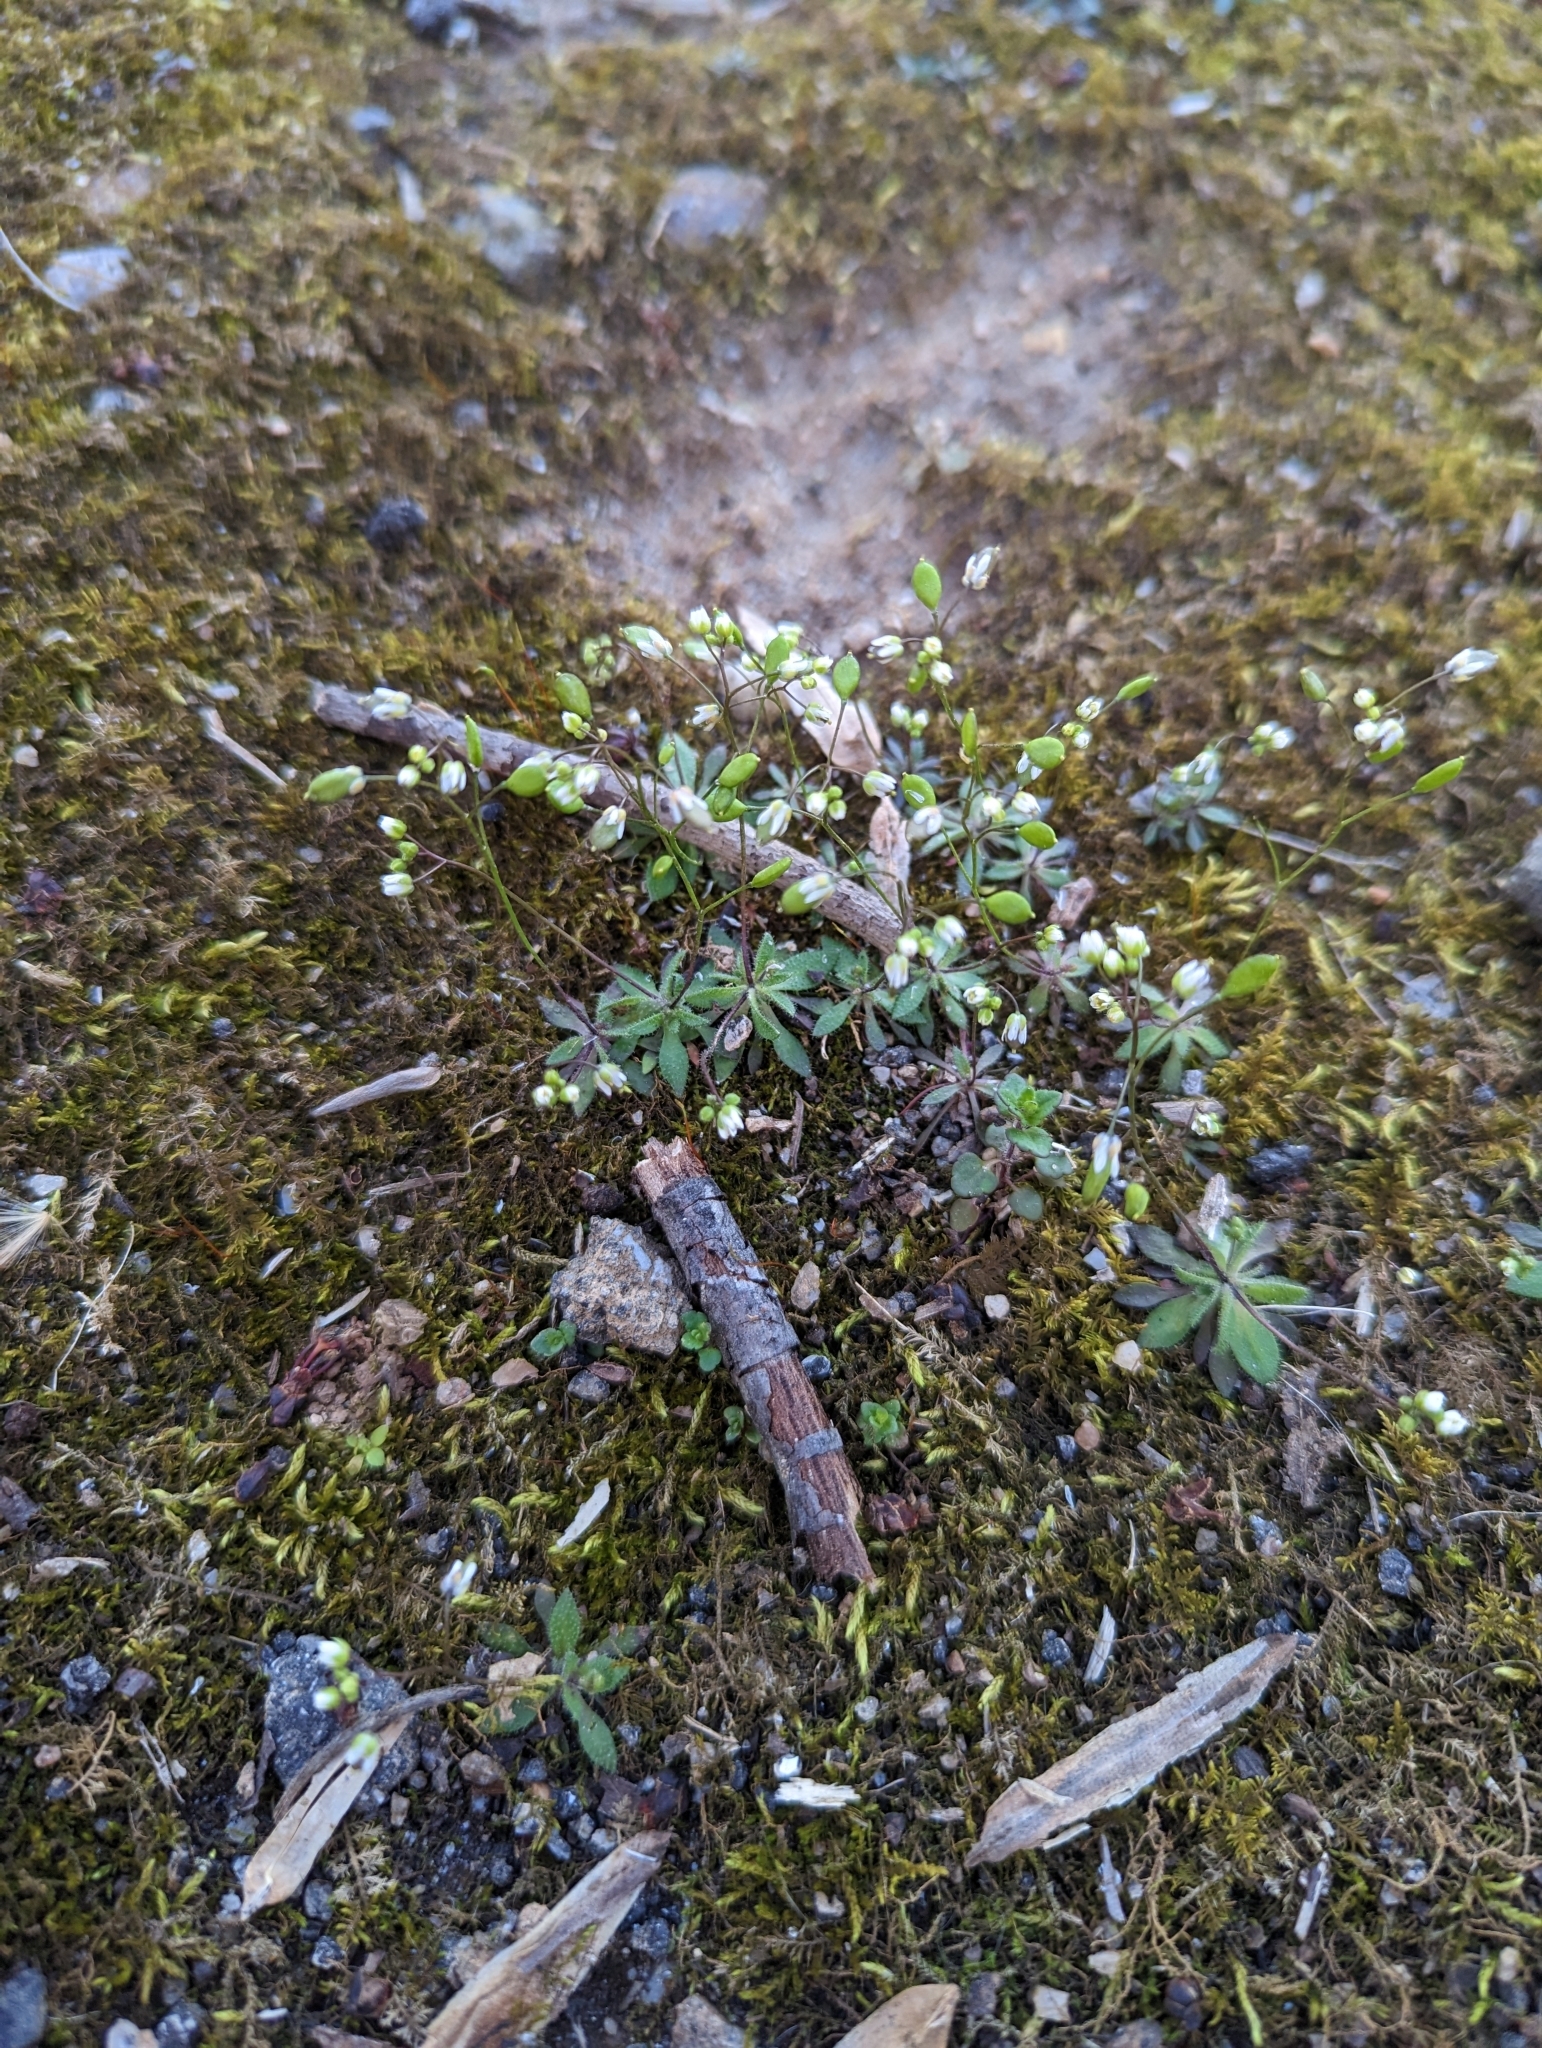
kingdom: Plantae
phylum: Tracheophyta
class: Magnoliopsida
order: Brassicales
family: Brassicaceae
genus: Draba
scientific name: Draba verna
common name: Spring draba
